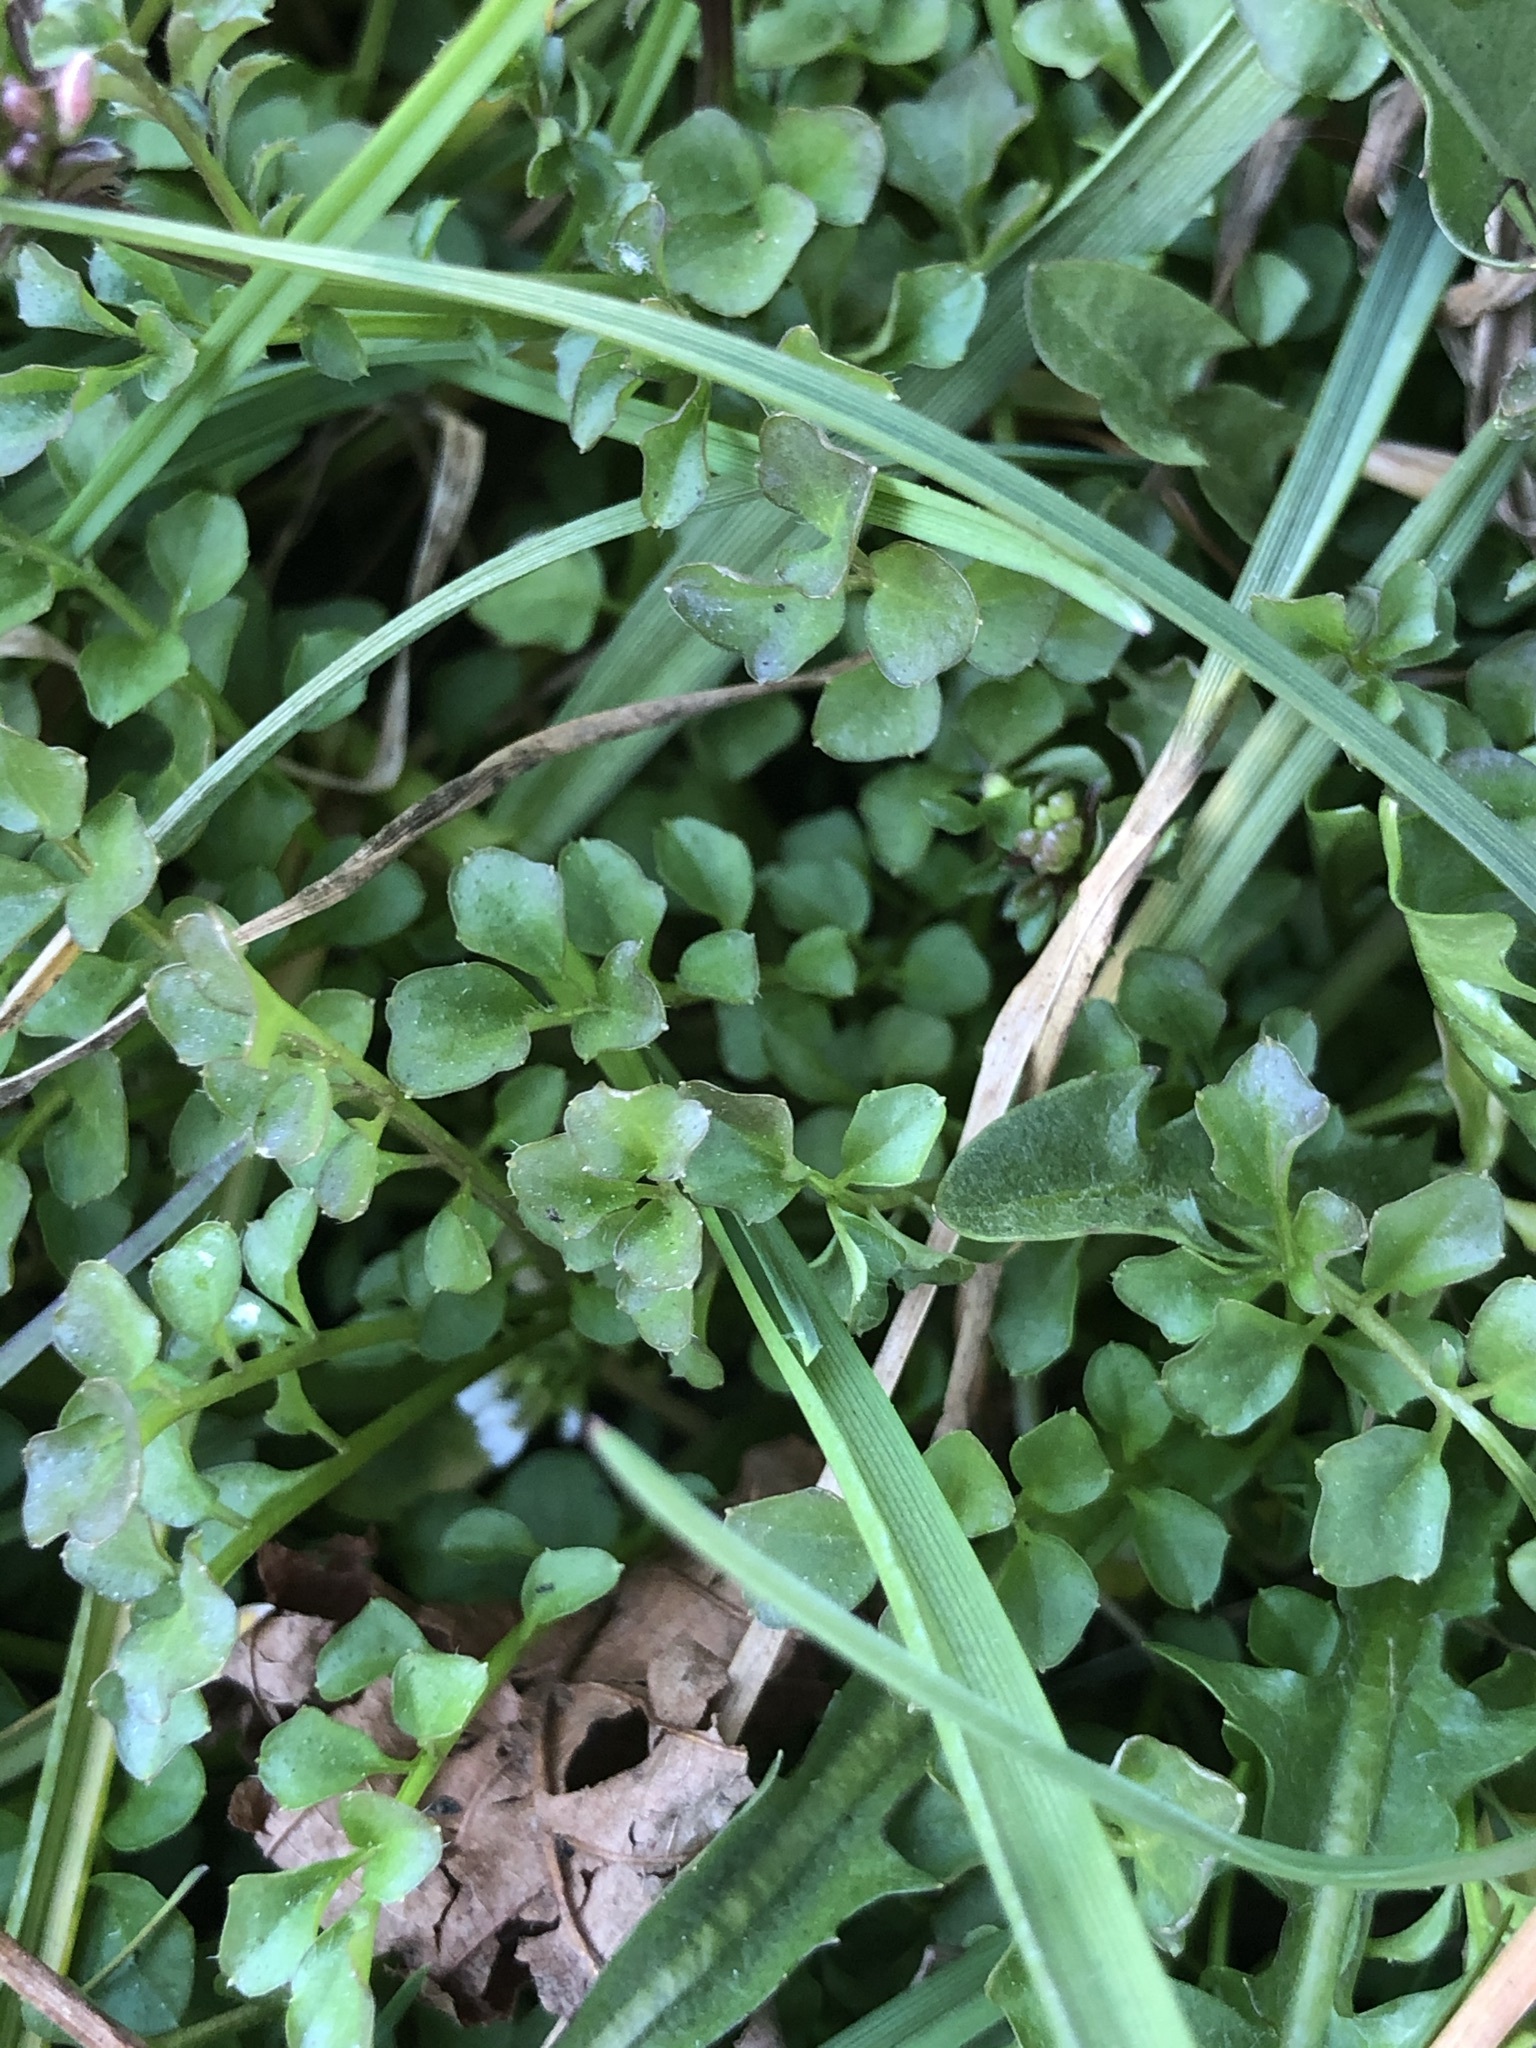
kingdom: Plantae
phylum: Tracheophyta
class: Magnoliopsida
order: Brassicales
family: Brassicaceae
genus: Cardamine
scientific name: Cardamine hirsuta
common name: Hairy bittercress
